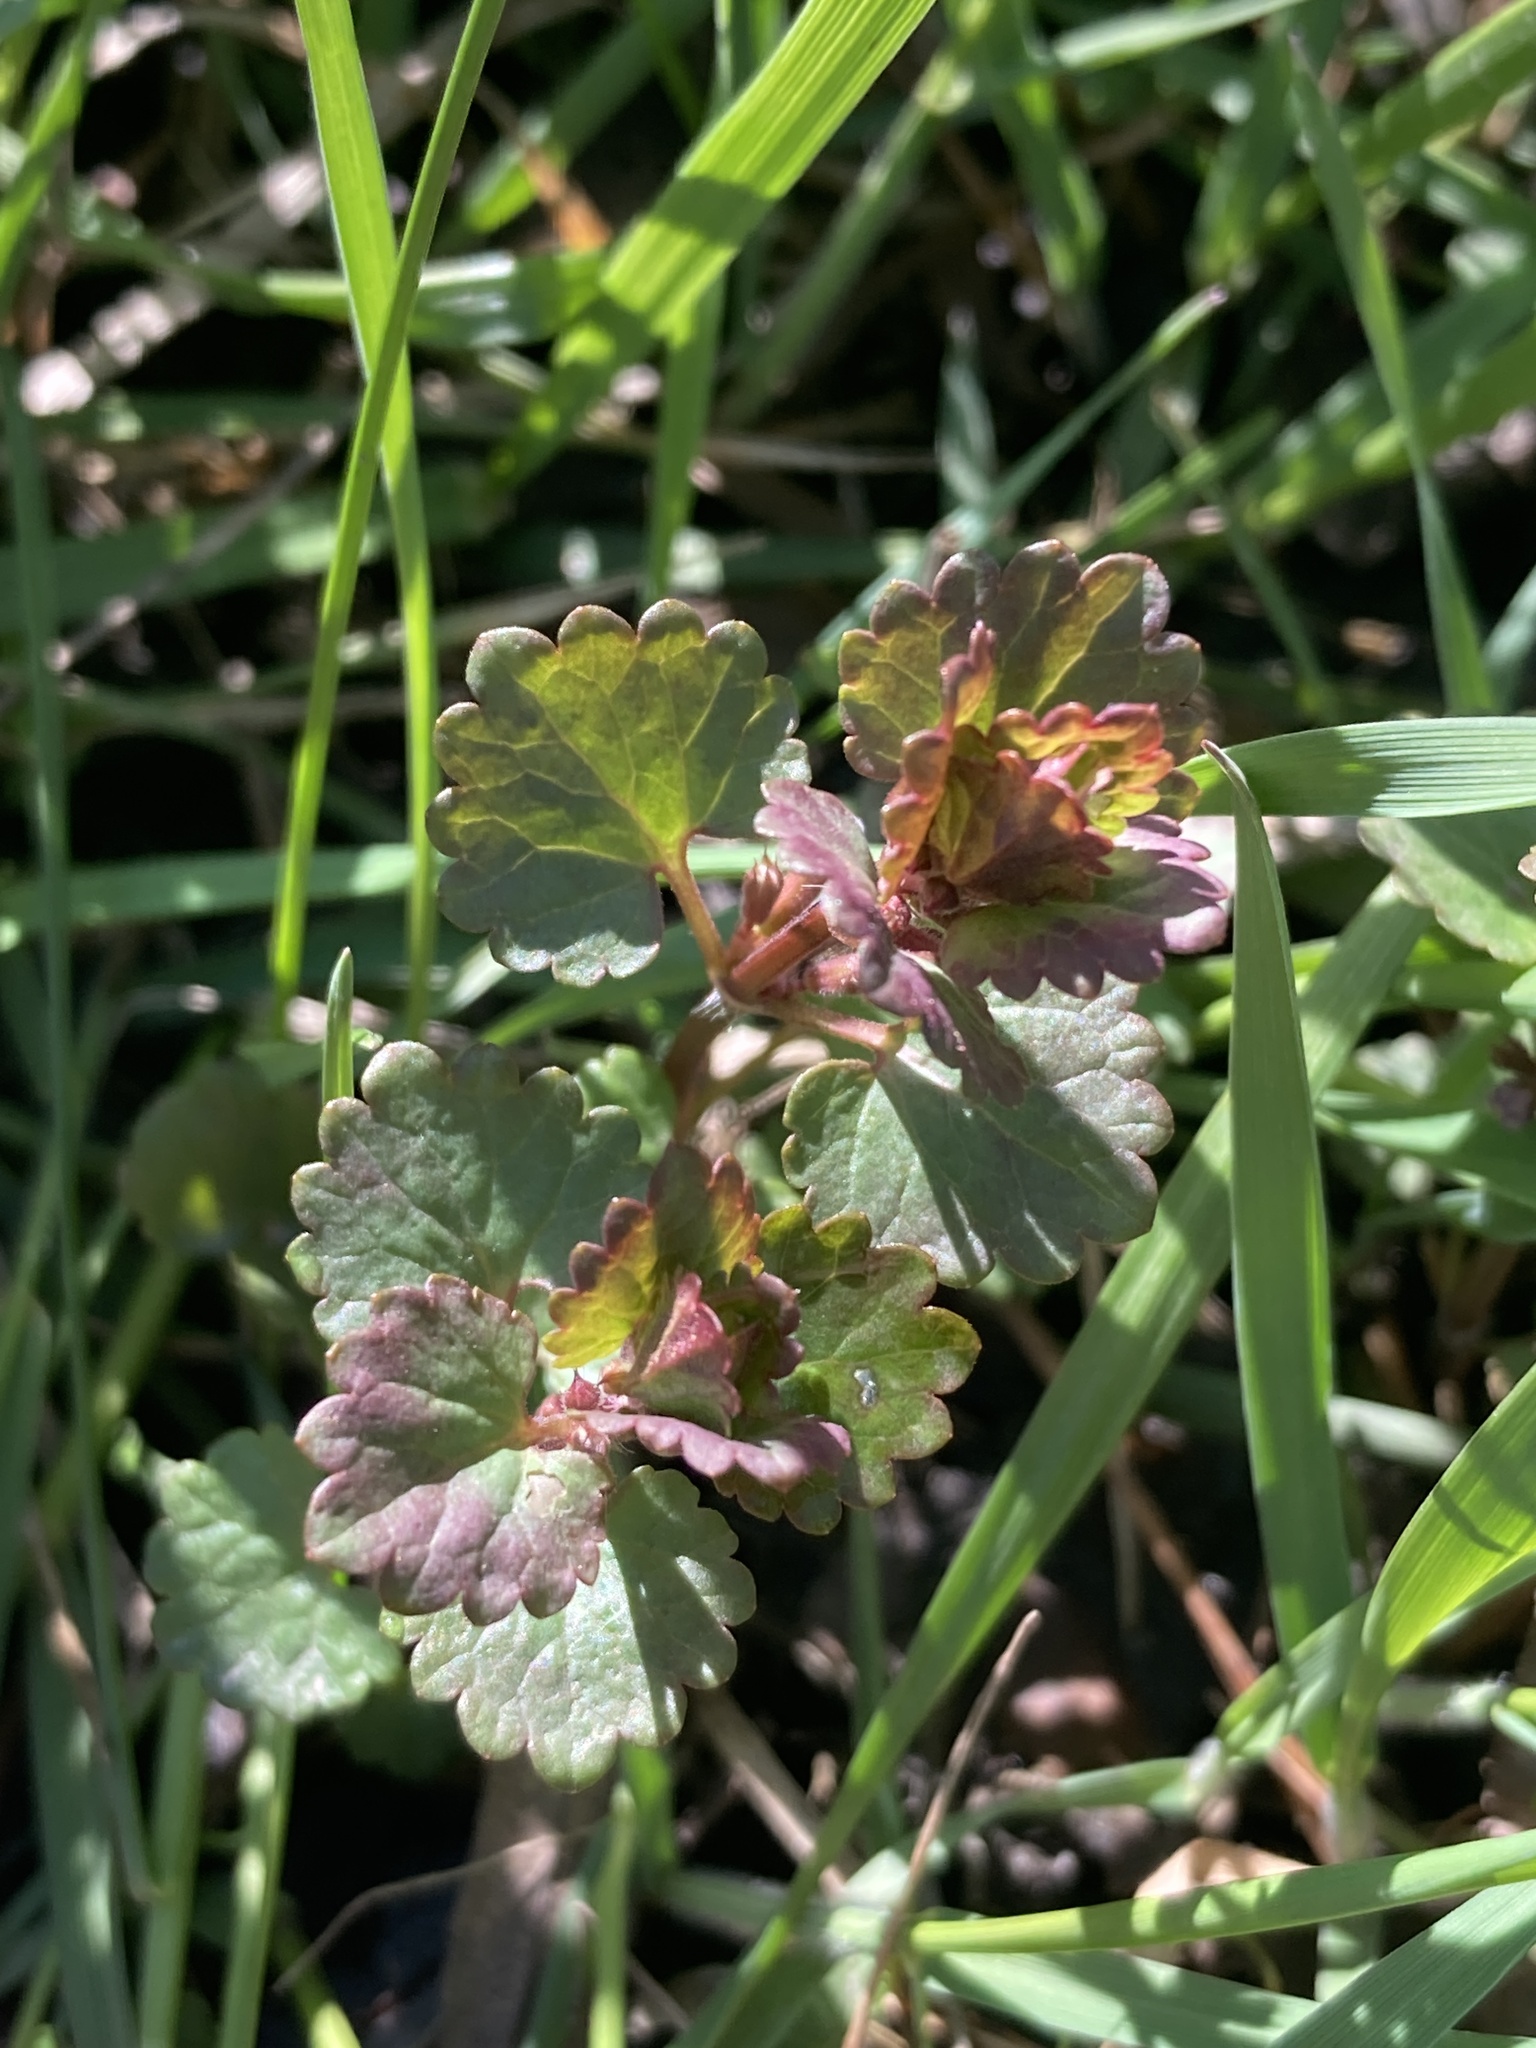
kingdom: Plantae
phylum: Tracheophyta
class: Magnoliopsida
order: Lamiales
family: Lamiaceae
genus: Glechoma
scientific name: Glechoma hederacea
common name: Ground ivy
